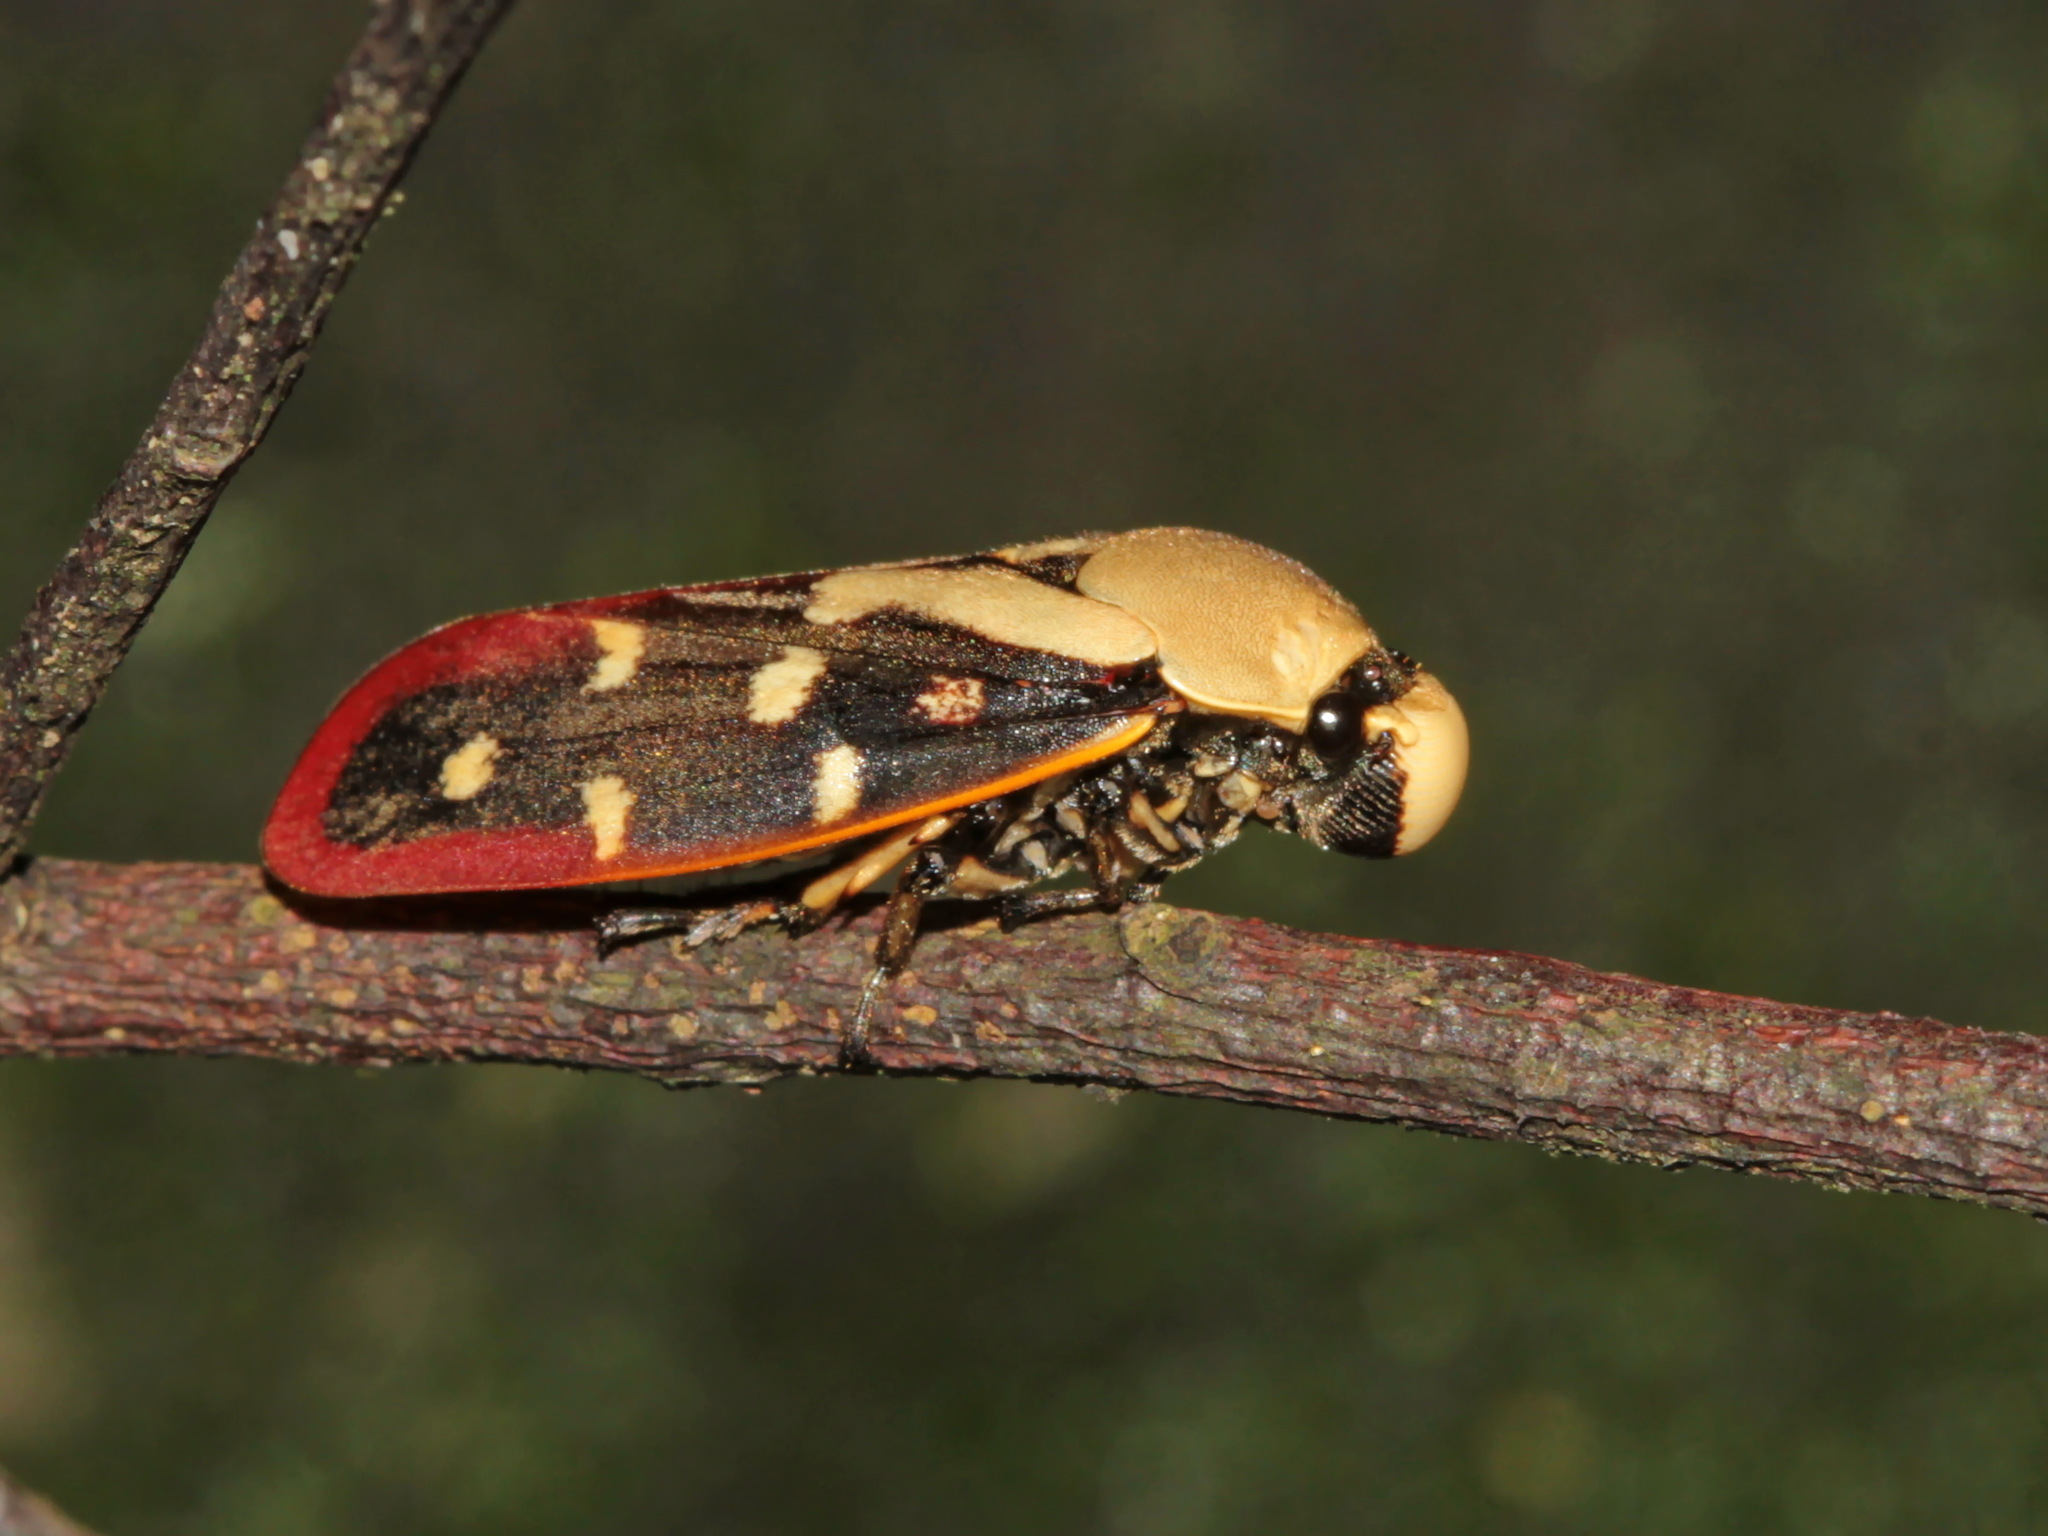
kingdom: Animalia
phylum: Arthropoda
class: Insecta
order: Hemiptera
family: Cercopidae
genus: Phymatostetha
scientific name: Phymatostetha rufolimbata
